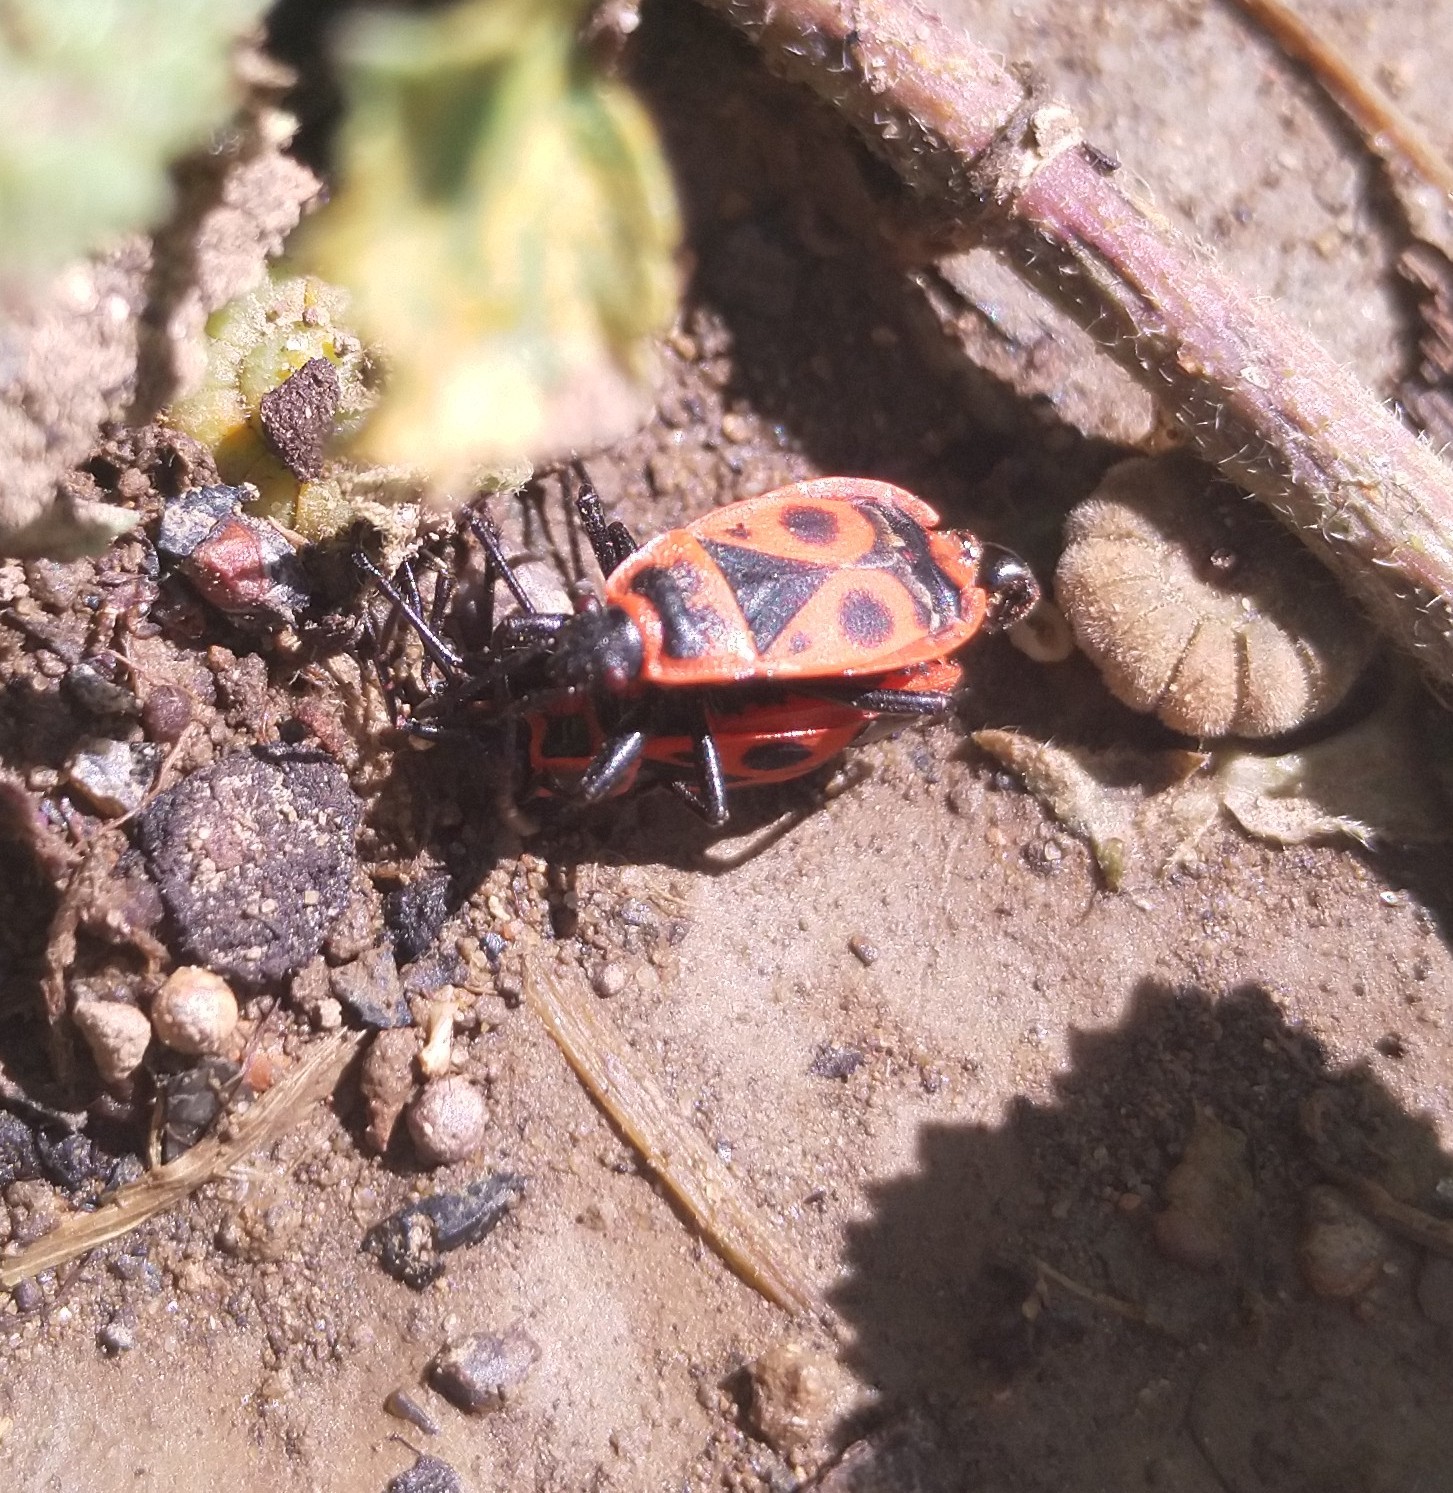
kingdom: Animalia
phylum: Arthropoda
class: Insecta
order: Hemiptera
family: Pyrrhocoridae
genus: Pyrrhocoris
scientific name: Pyrrhocoris apterus
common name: Firebug
